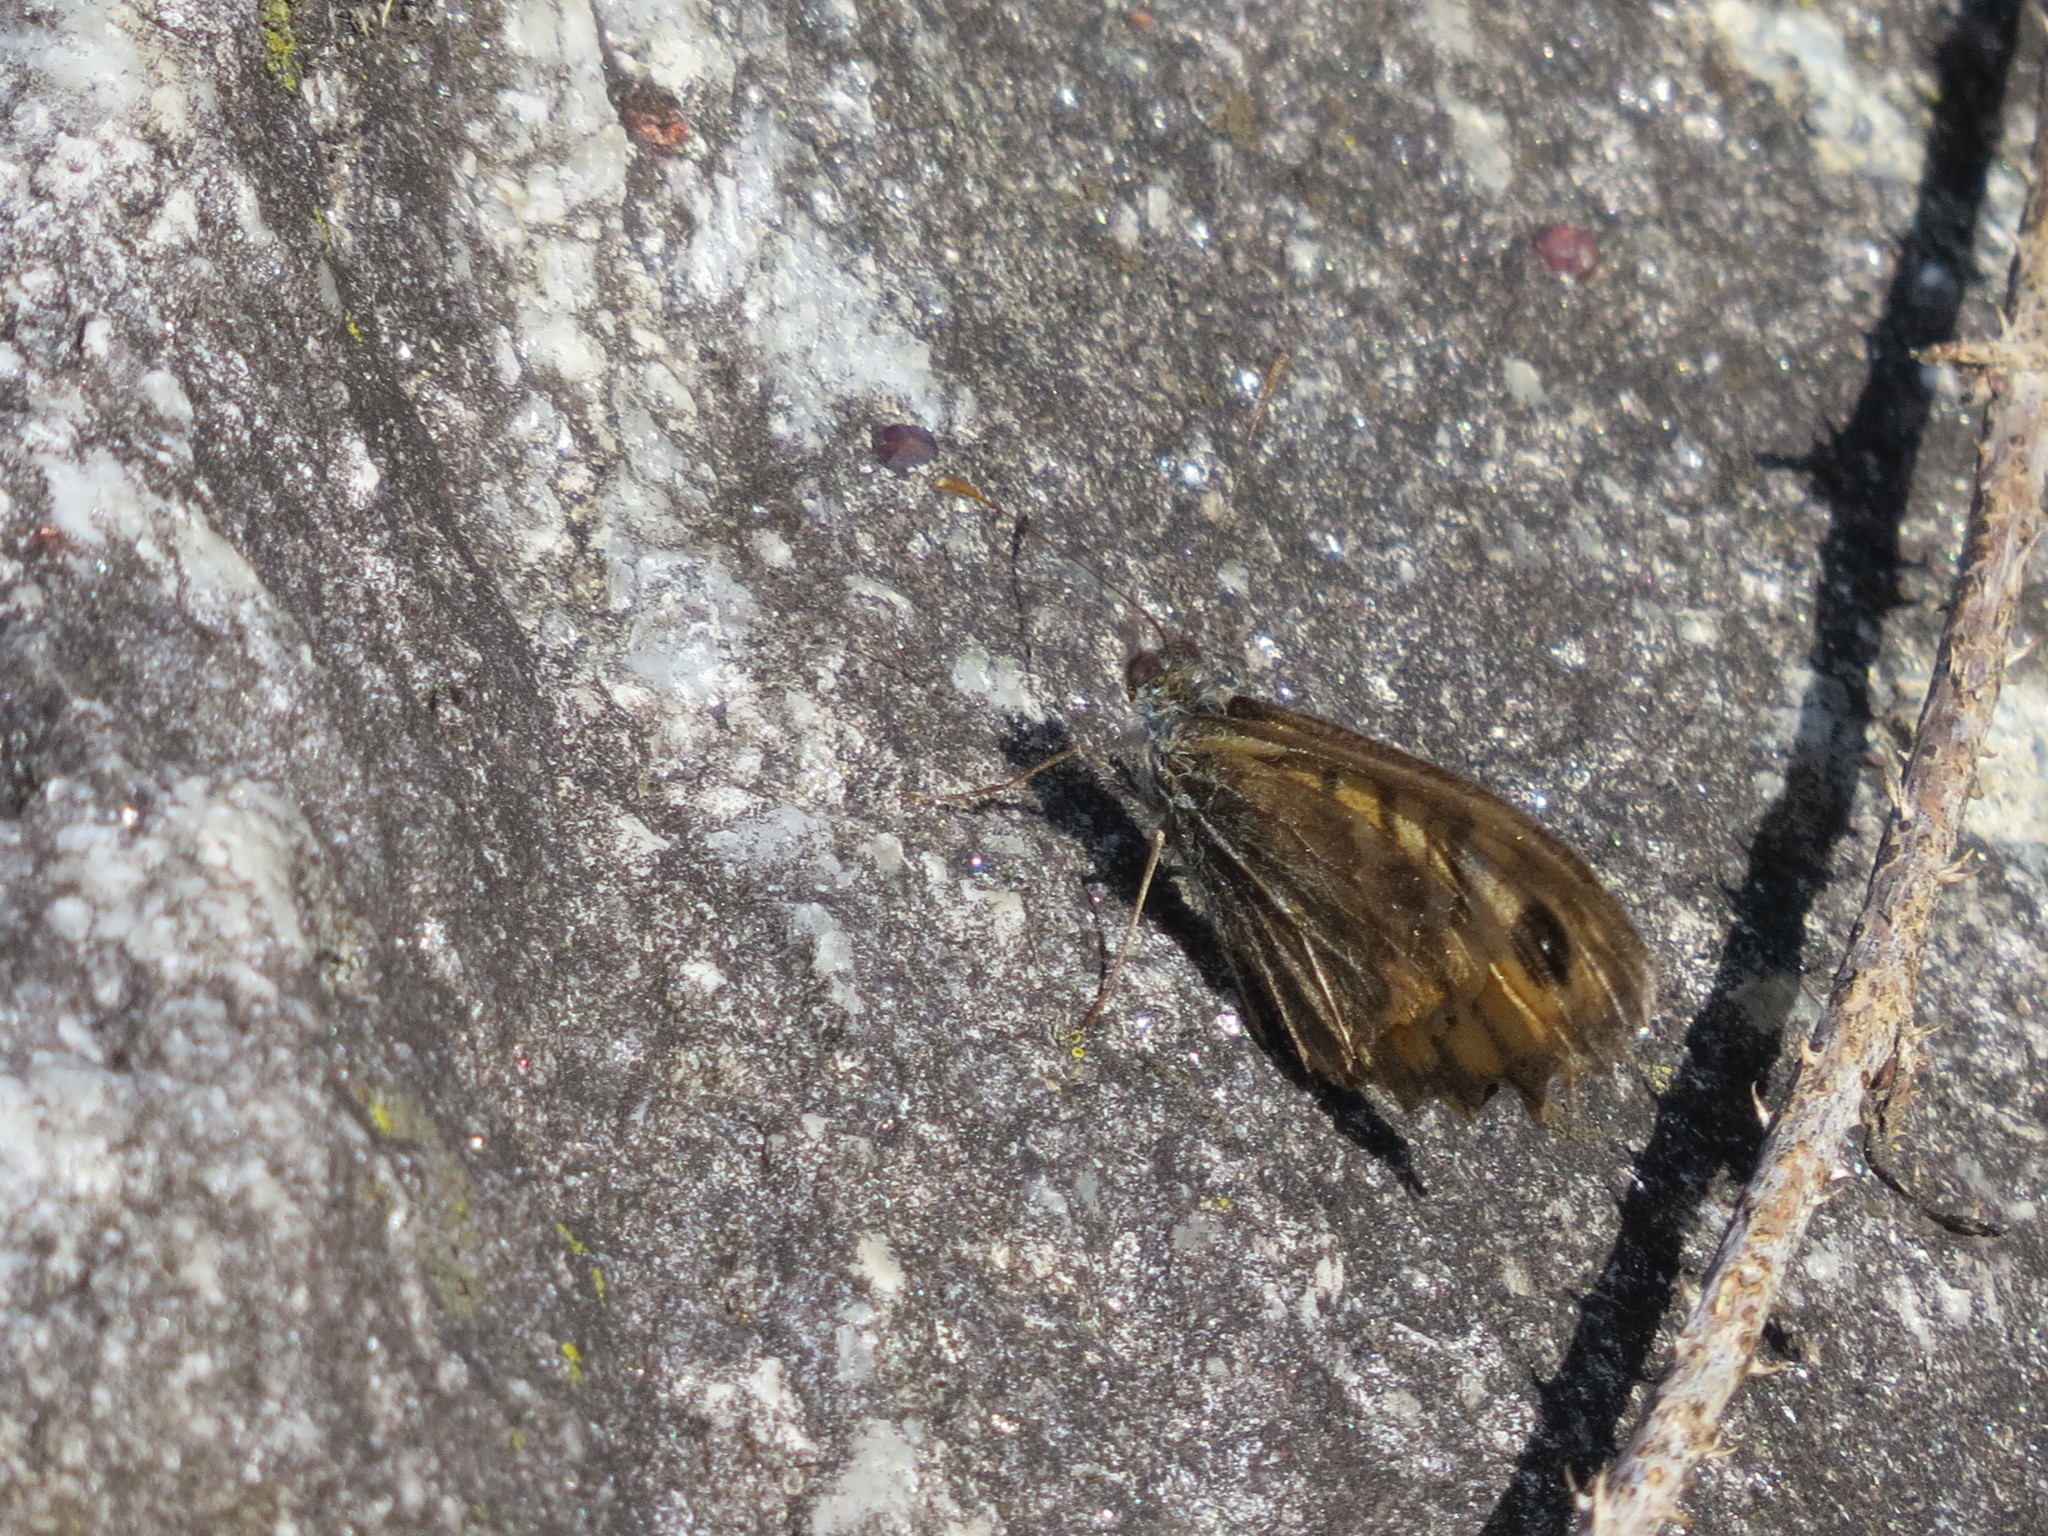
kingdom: Animalia
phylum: Arthropoda
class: Insecta
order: Lepidoptera
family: Nymphalidae
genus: Pararge
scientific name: Pararge Lasiommata megera
